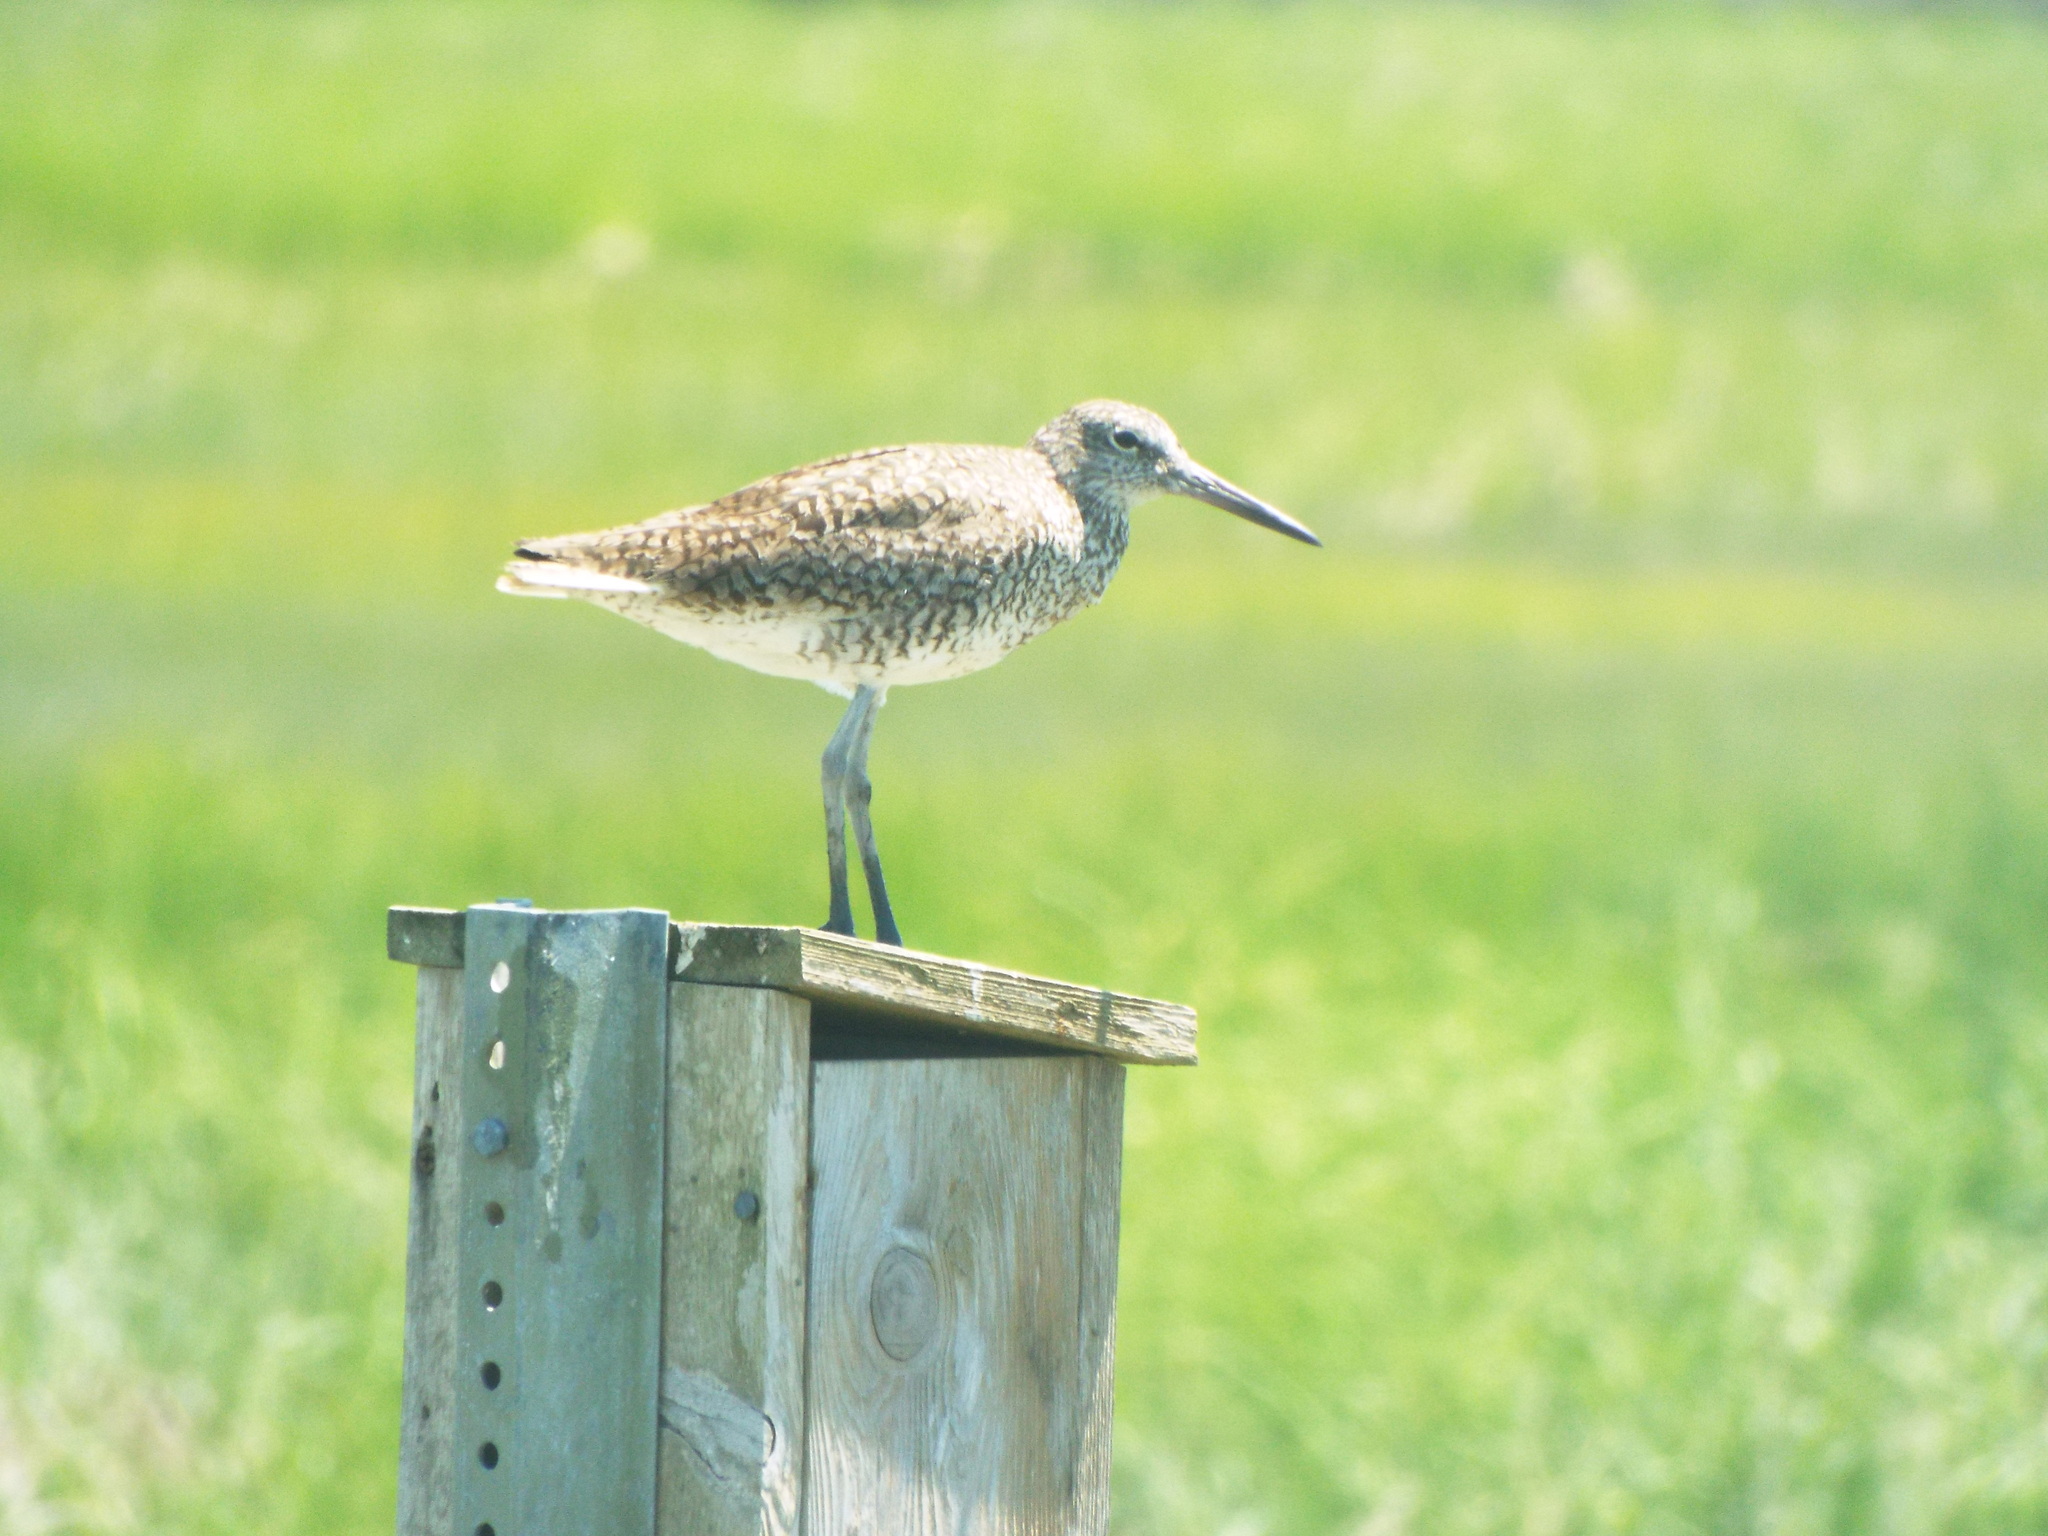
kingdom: Animalia
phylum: Chordata
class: Aves
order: Charadriiformes
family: Scolopacidae
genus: Tringa
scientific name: Tringa semipalmata
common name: Willet
